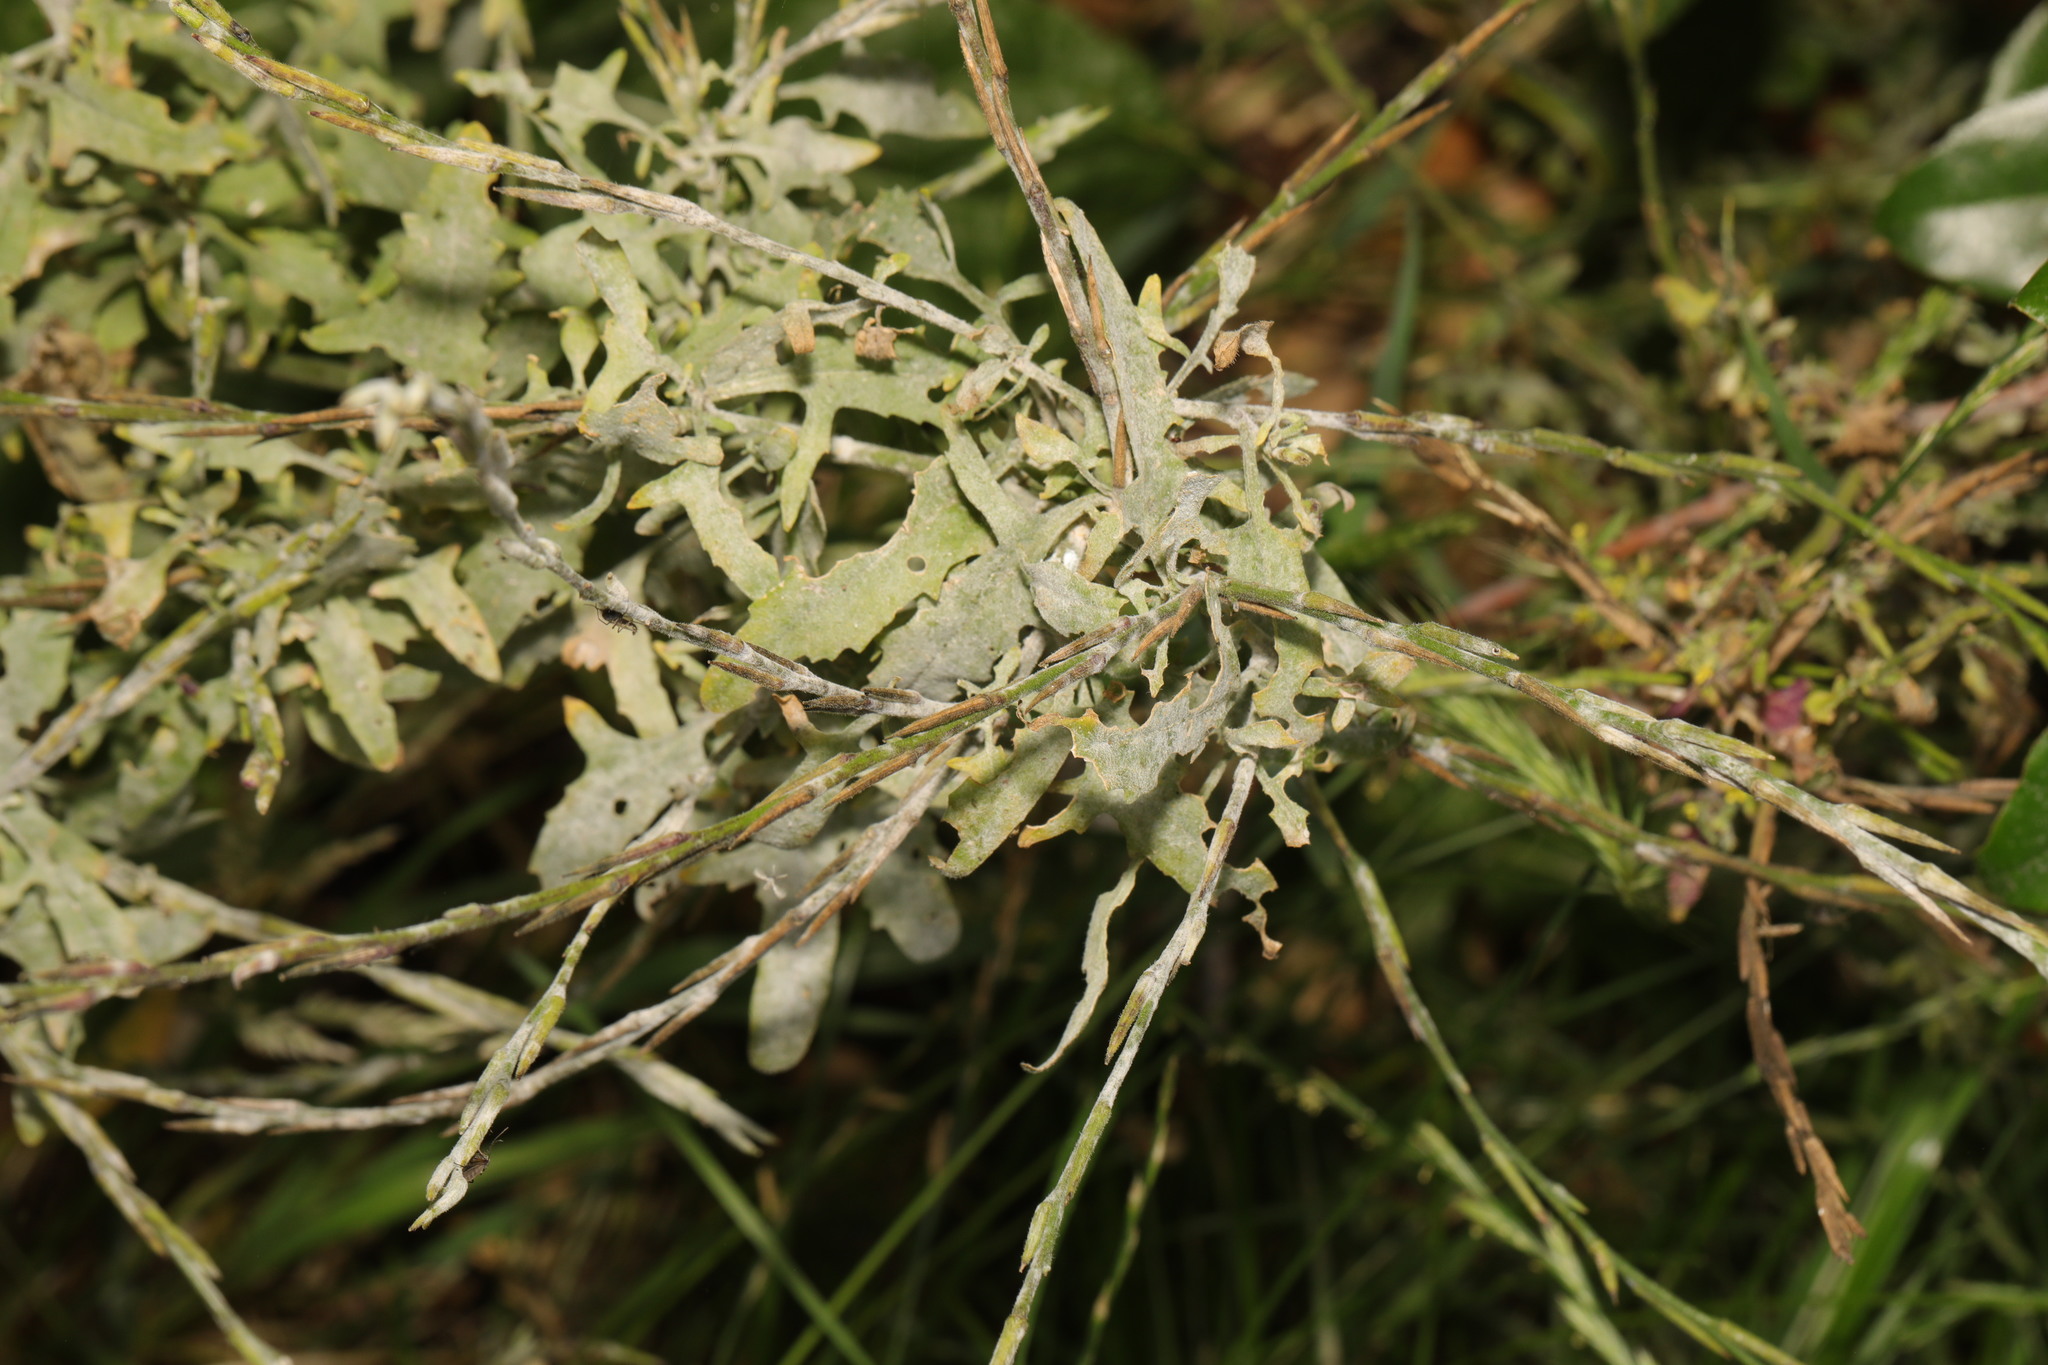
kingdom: Plantae
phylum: Tracheophyta
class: Magnoliopsida
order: Brassicales
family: Brassicaceae
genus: Sisymbrium
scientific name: Sisymbrium officinale
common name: Hedge mustard
